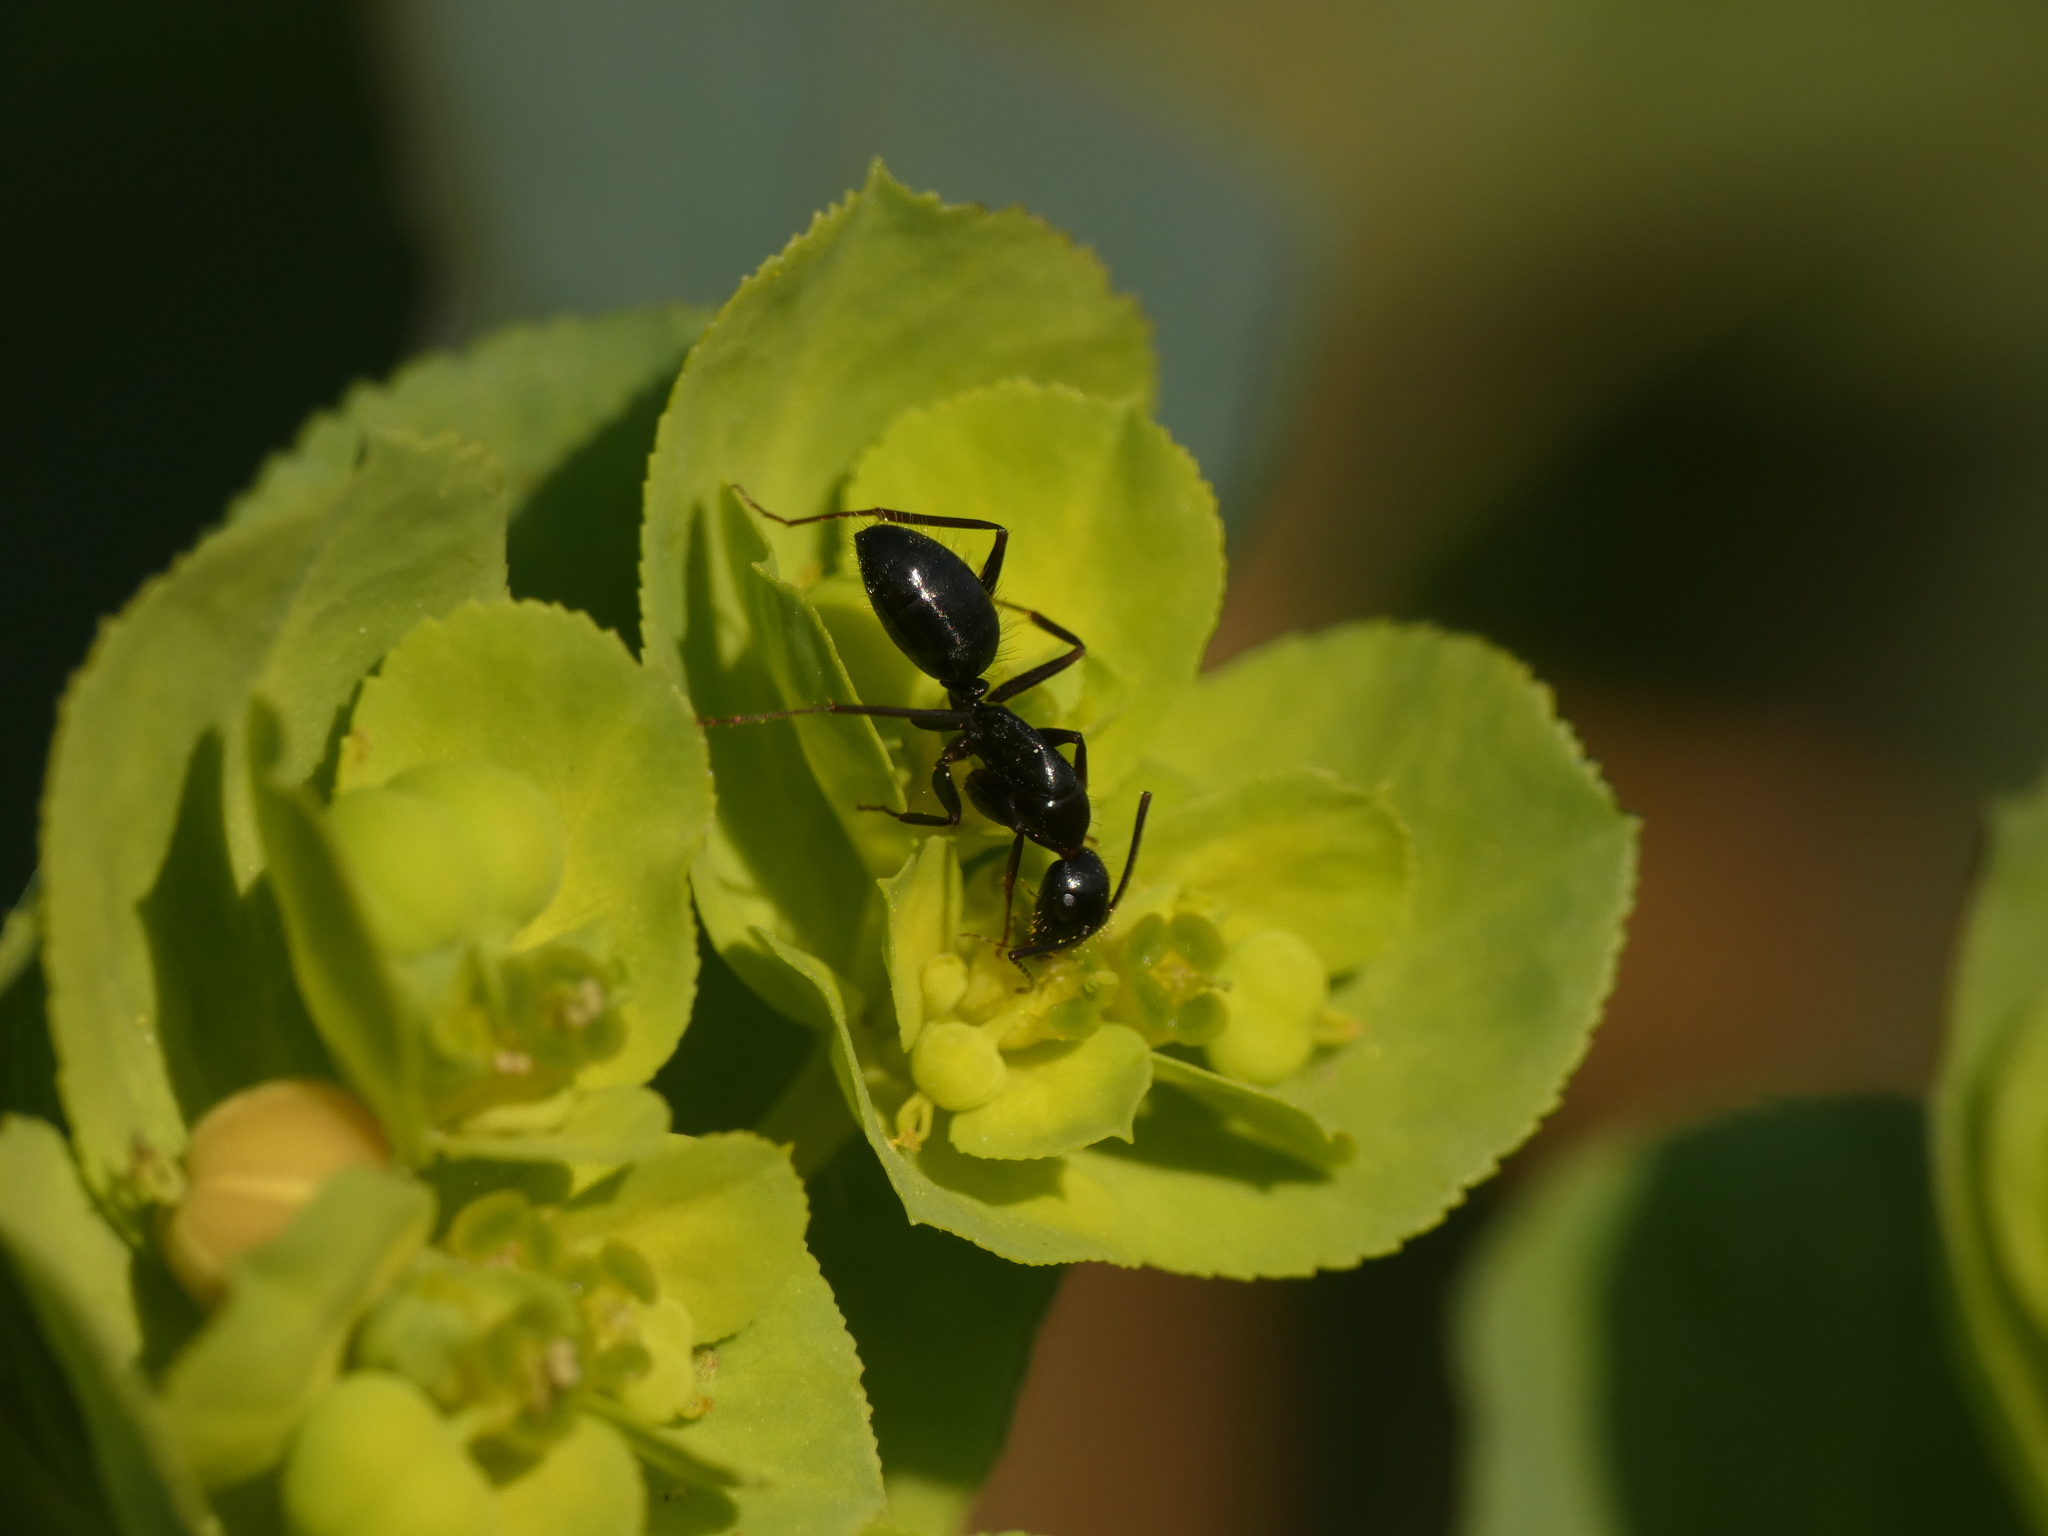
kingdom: Animalia
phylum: Arthropoda
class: Insecta
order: Hymenoptera
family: Formicidae
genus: Camponotus
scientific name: Camponotus aethiops
